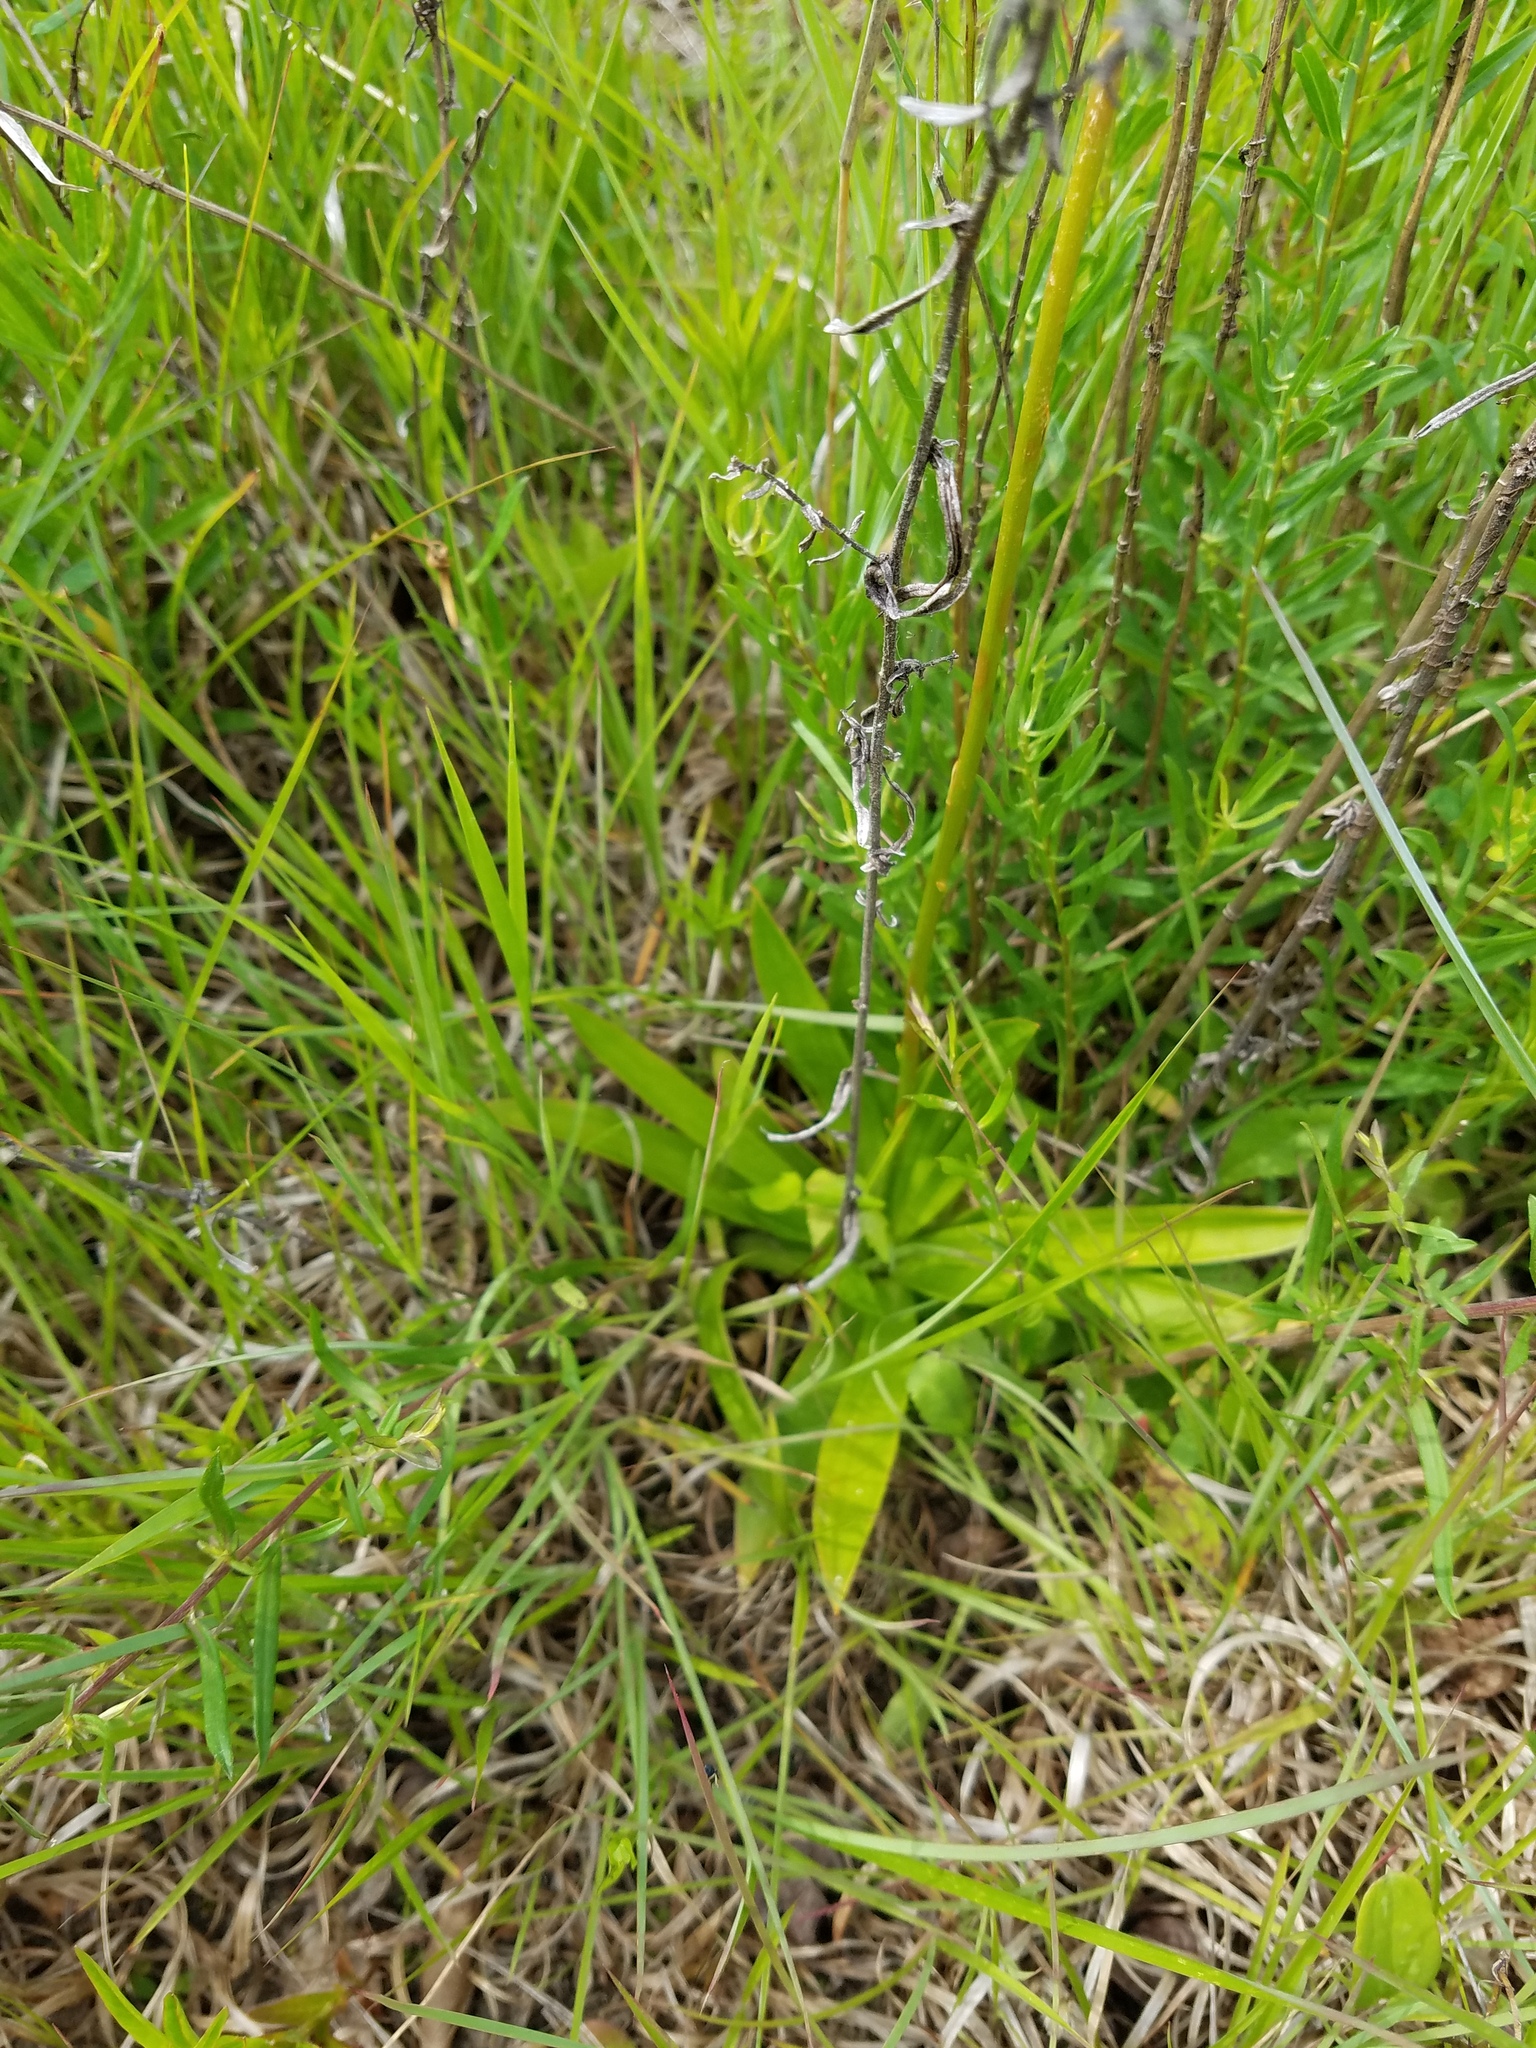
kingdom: Plantae
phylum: Tracheophyta
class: Liliopsida
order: Dioscoreales
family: Nartheciaceae
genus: Aletris
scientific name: Aletris farinosa
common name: Colicroot
